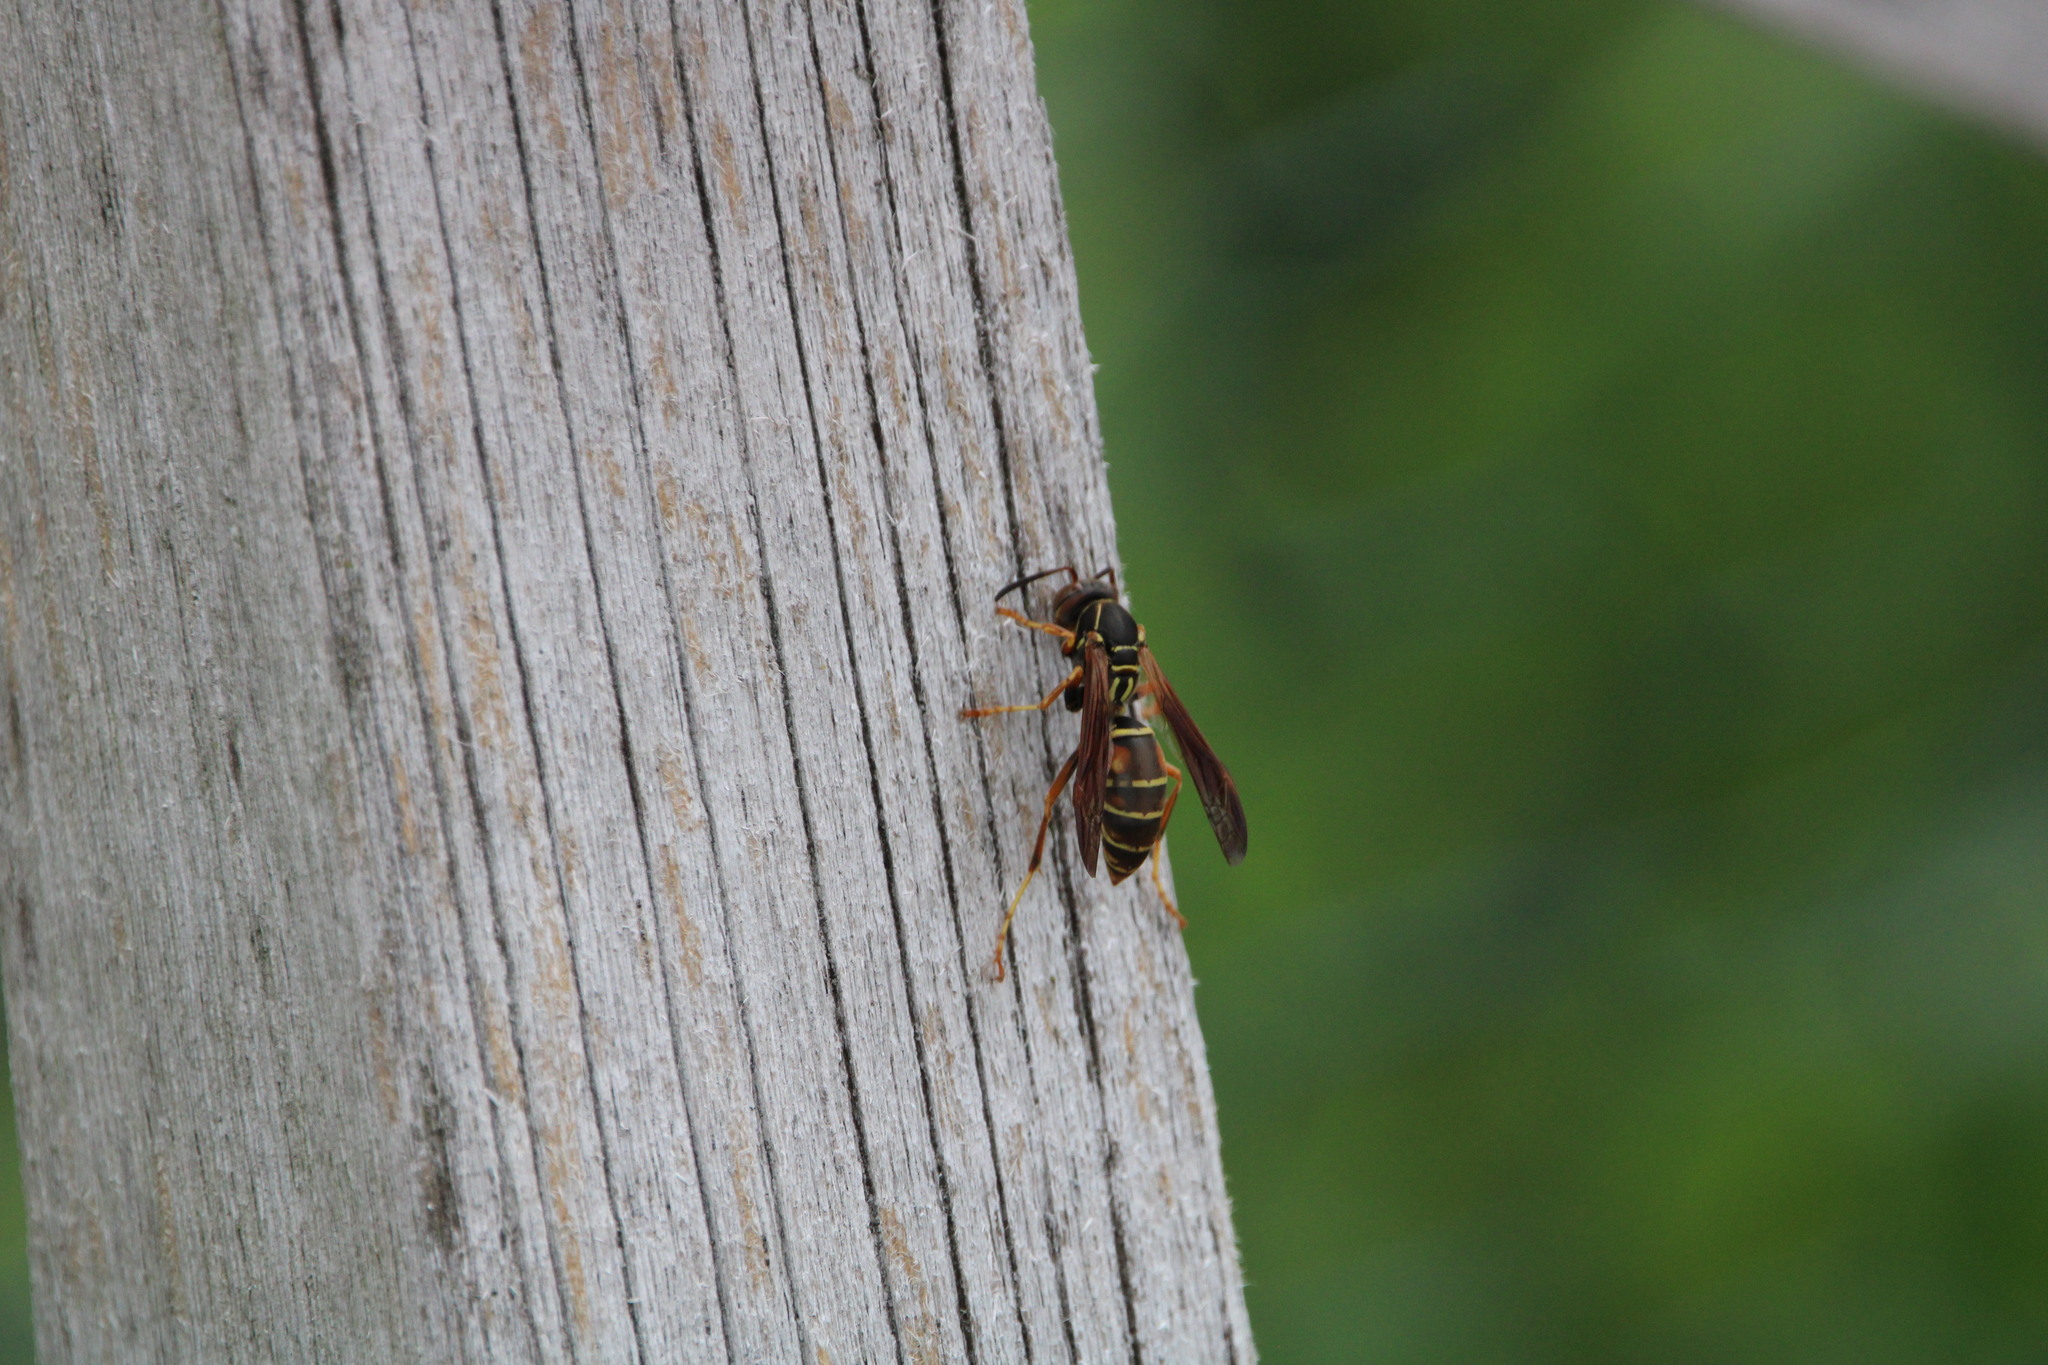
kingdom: Animalia
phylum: Arthropoda
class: Insecta
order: Hymenoptera
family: Eumenidae
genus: Polistes
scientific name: Polistes fuscatus
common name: Dark paper wasp
